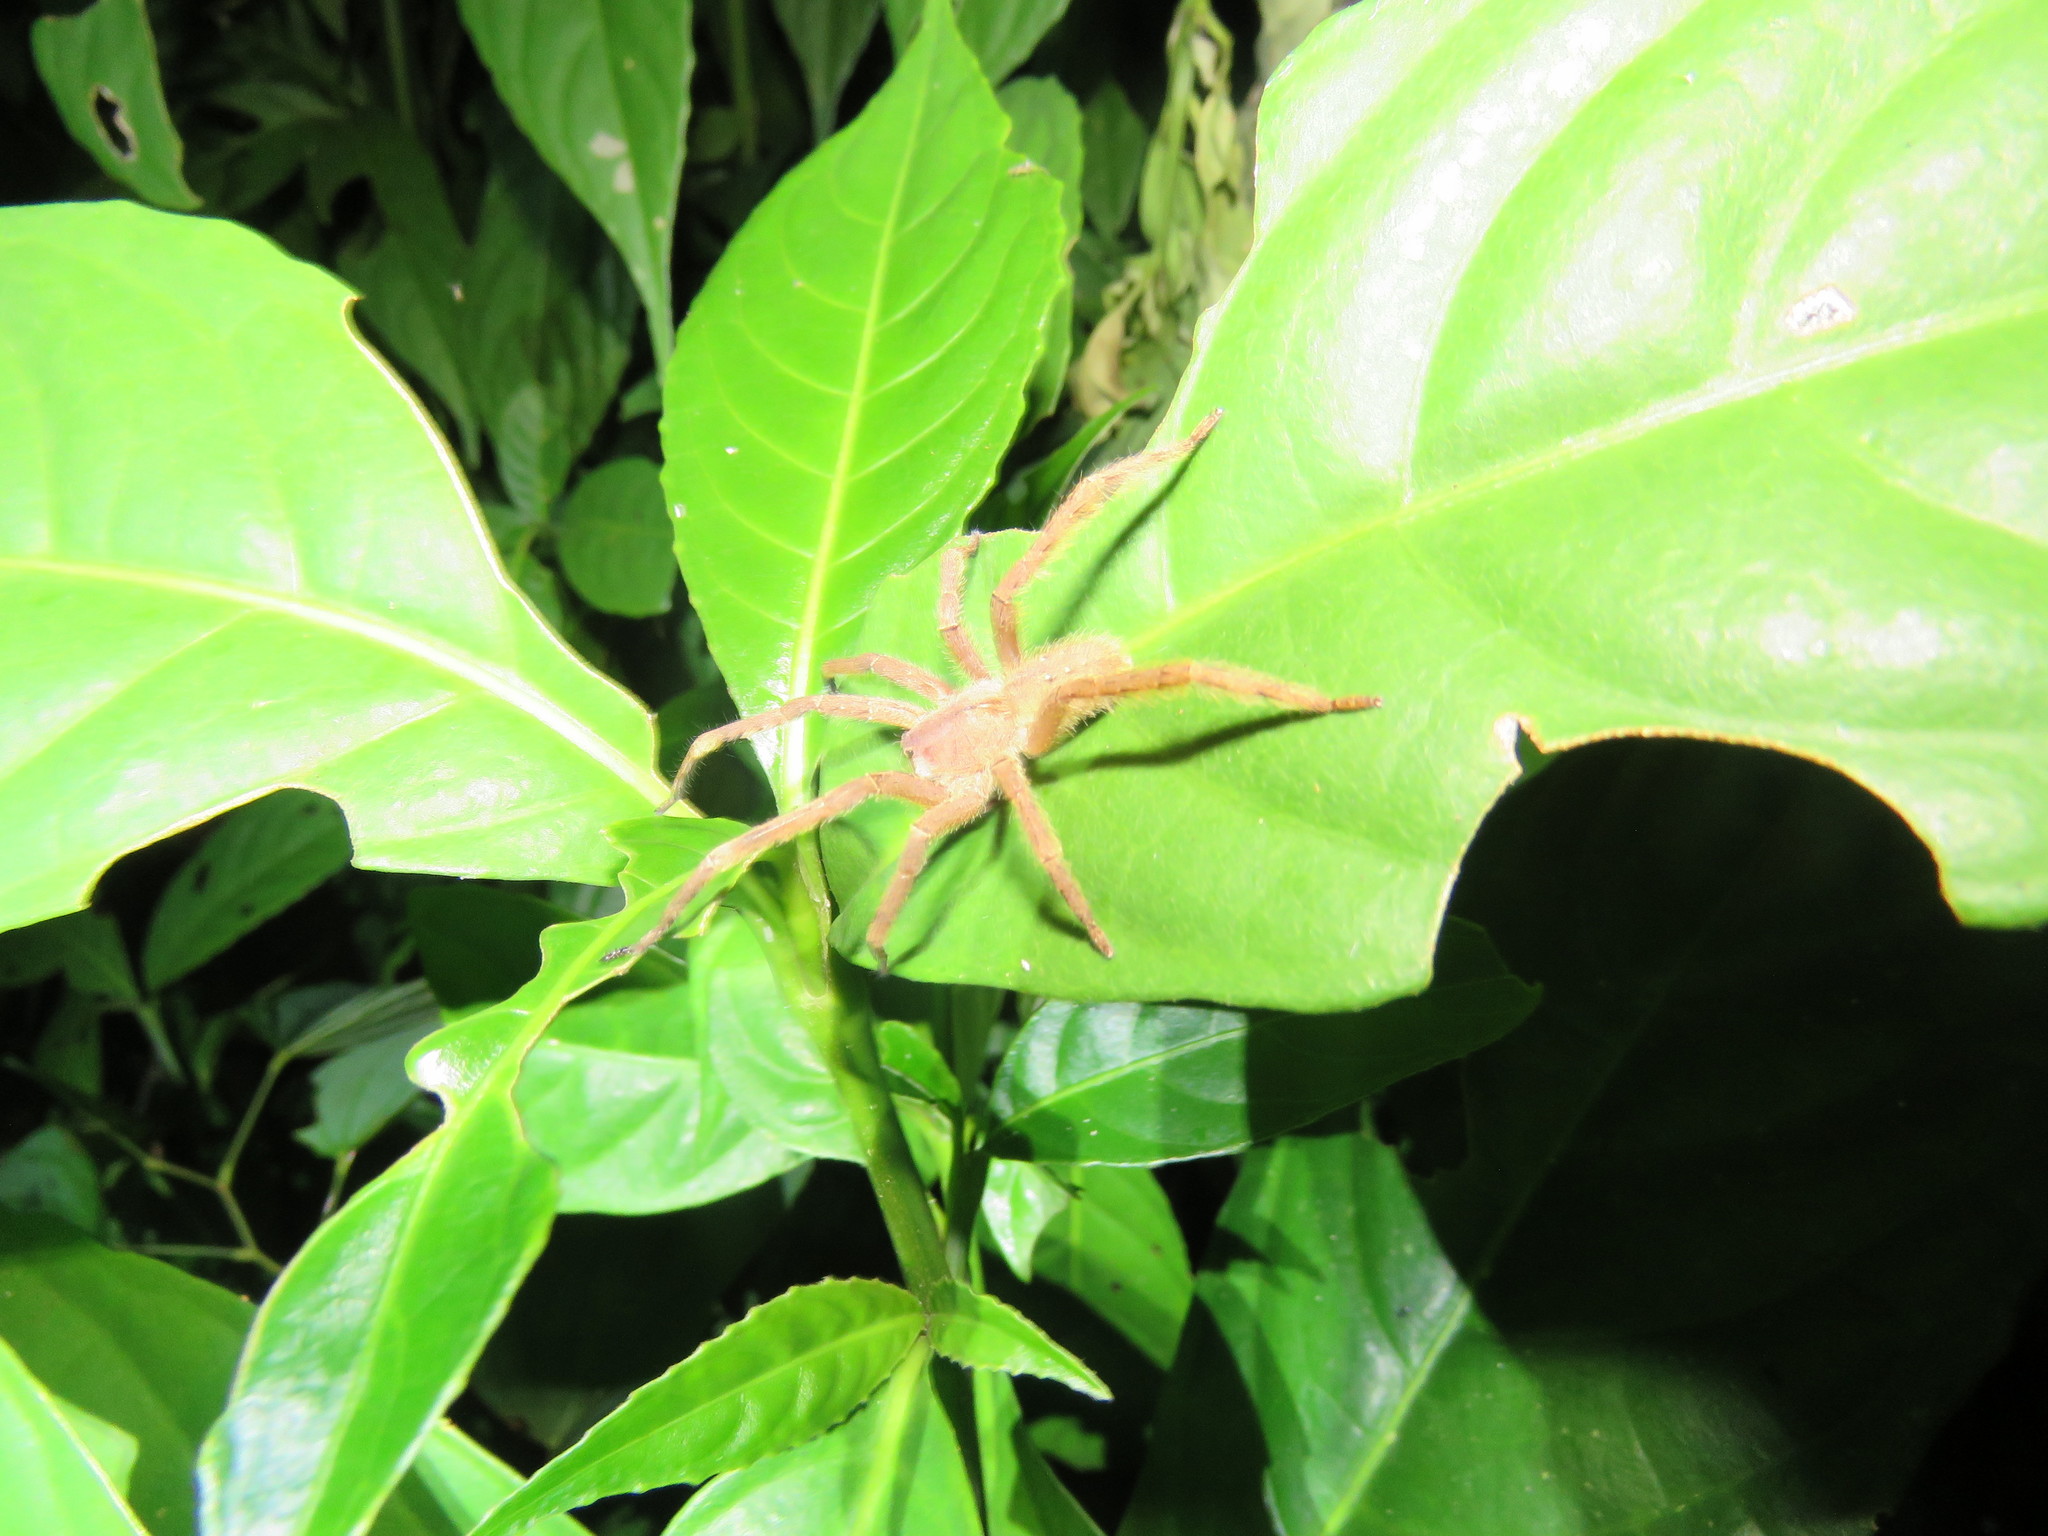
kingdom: Animalia
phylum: Arthropoda
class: Arachnida
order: Araneae
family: Ctenidae
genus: Phoneutria
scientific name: Phoneutria boliviensis
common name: Wandering spiders
